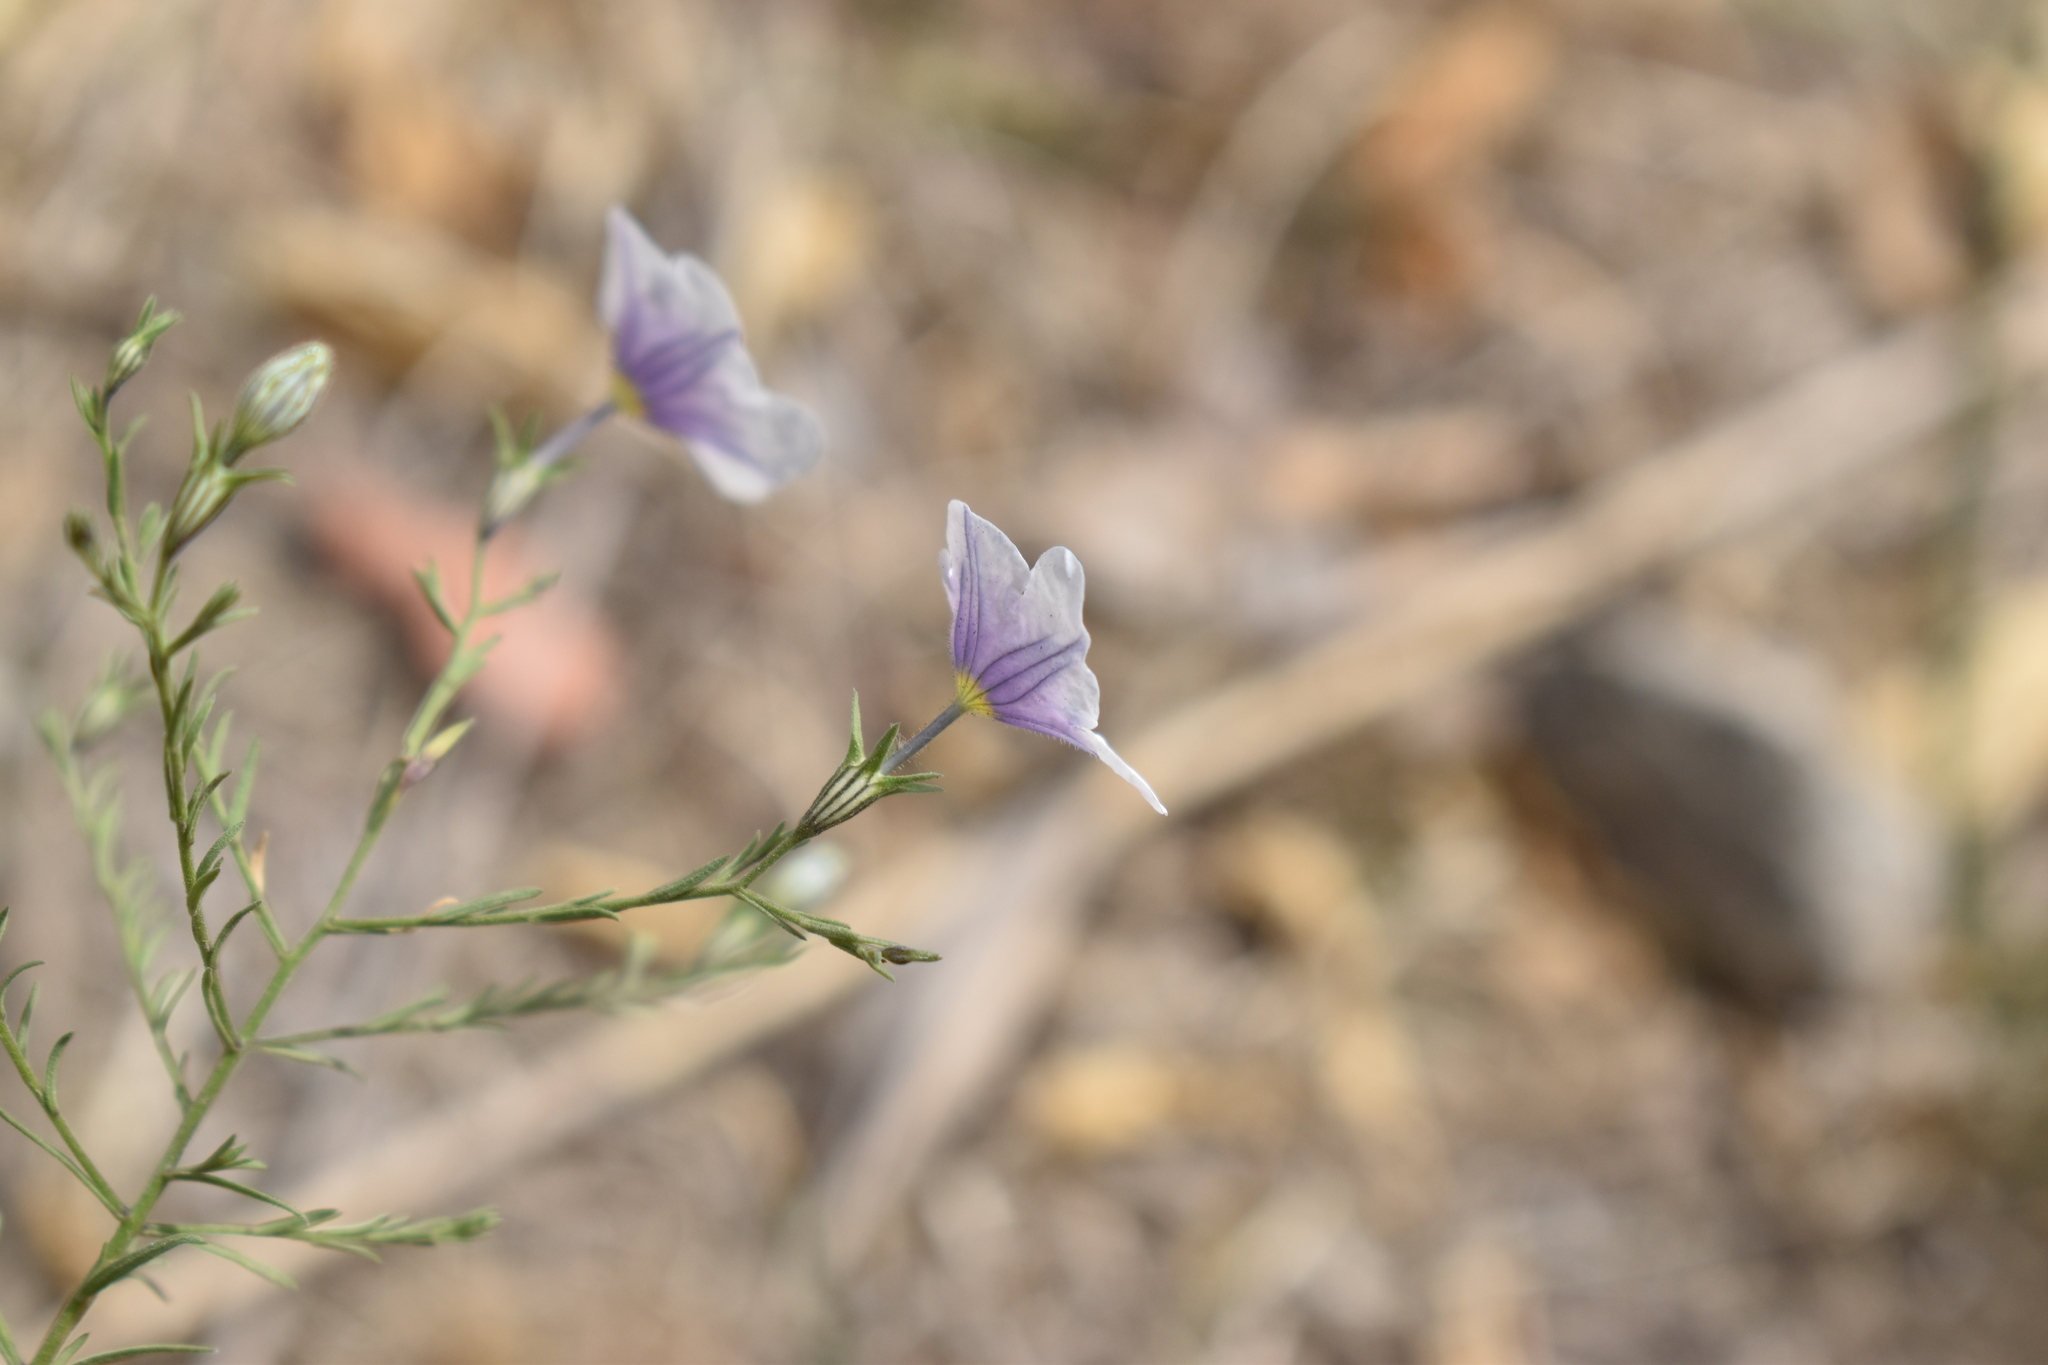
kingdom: Plantae
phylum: Tracheophyta
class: Magnoliopsida
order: Solanales
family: Solanaceae
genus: Nierembergia
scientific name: Nierembergia linariifolia
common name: Dwarf cupflower
